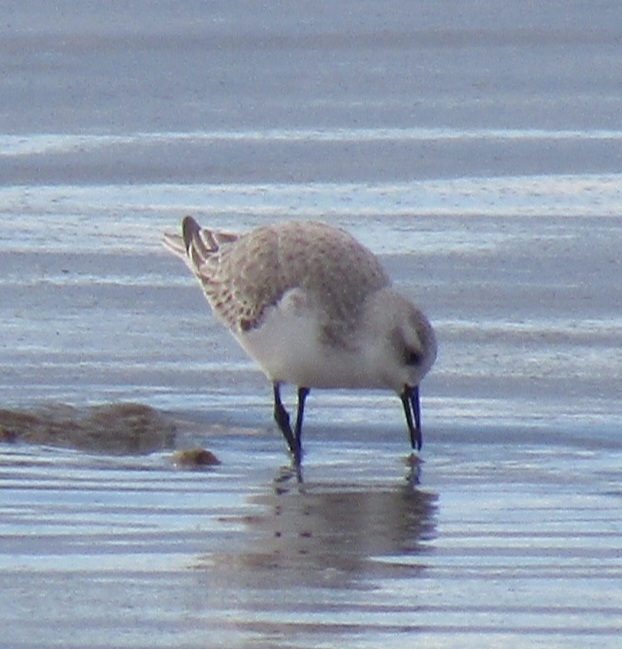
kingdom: Animalia
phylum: Chordata
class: Aves
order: Charadriiformes
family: Scolopacidae
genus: Calidris
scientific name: Calidris alba
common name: Sanderling
